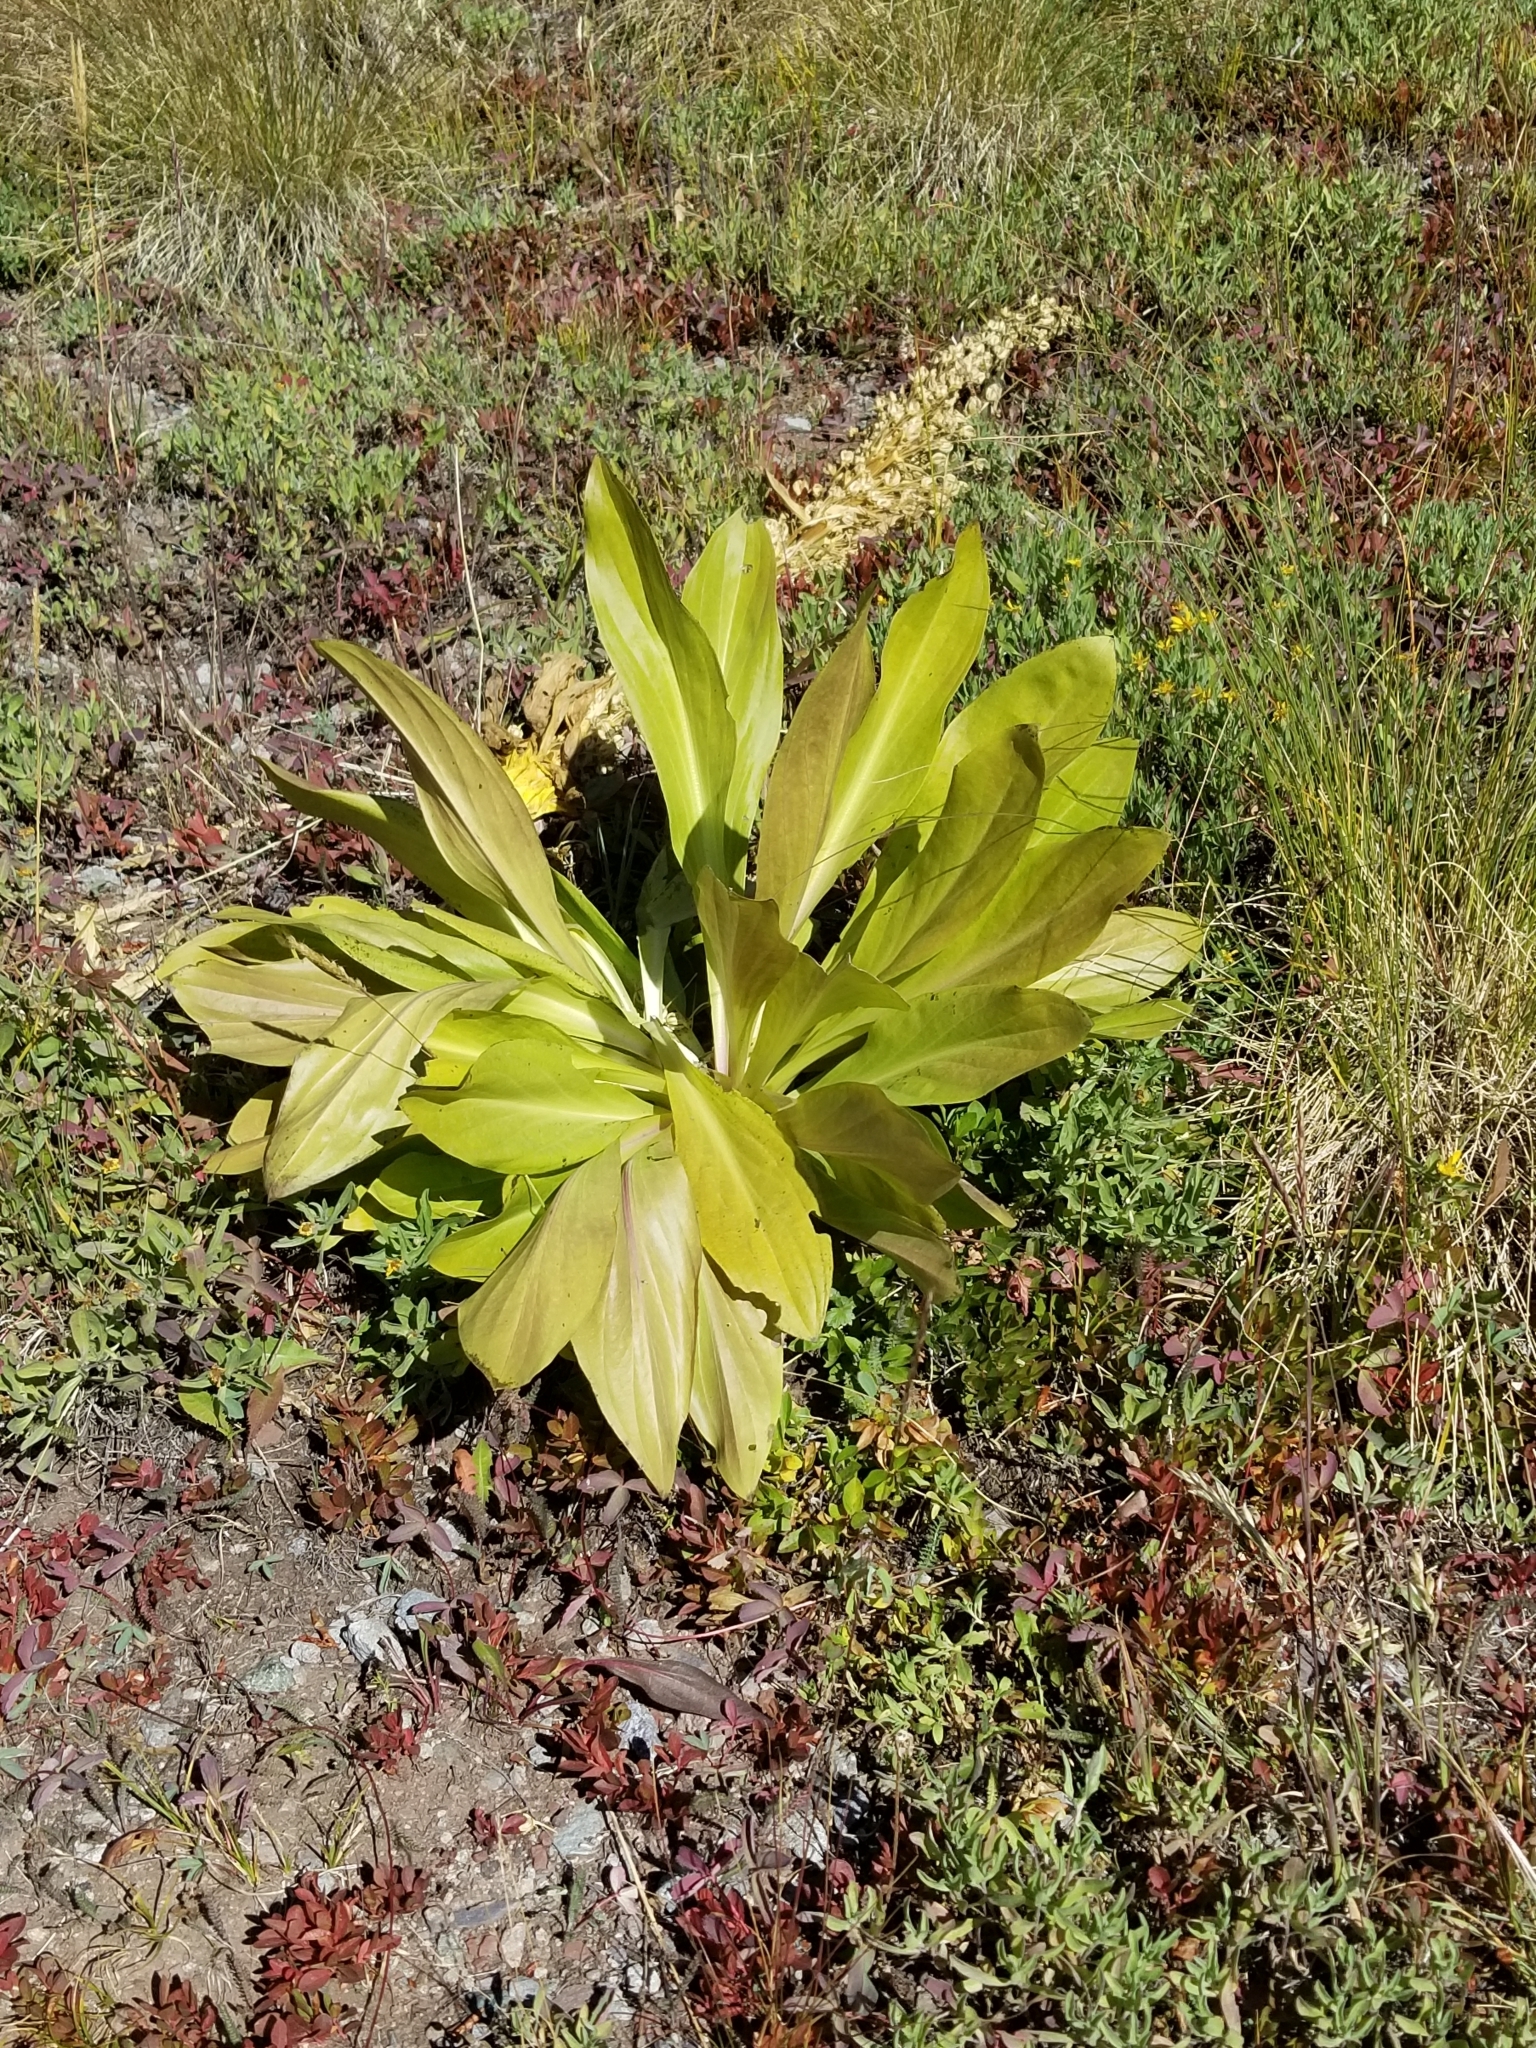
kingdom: Plantae
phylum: Tracheophyta
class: Magnoliopsida
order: Gentianales
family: Gentianaceae
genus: Frasera
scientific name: Frasera speciosa
